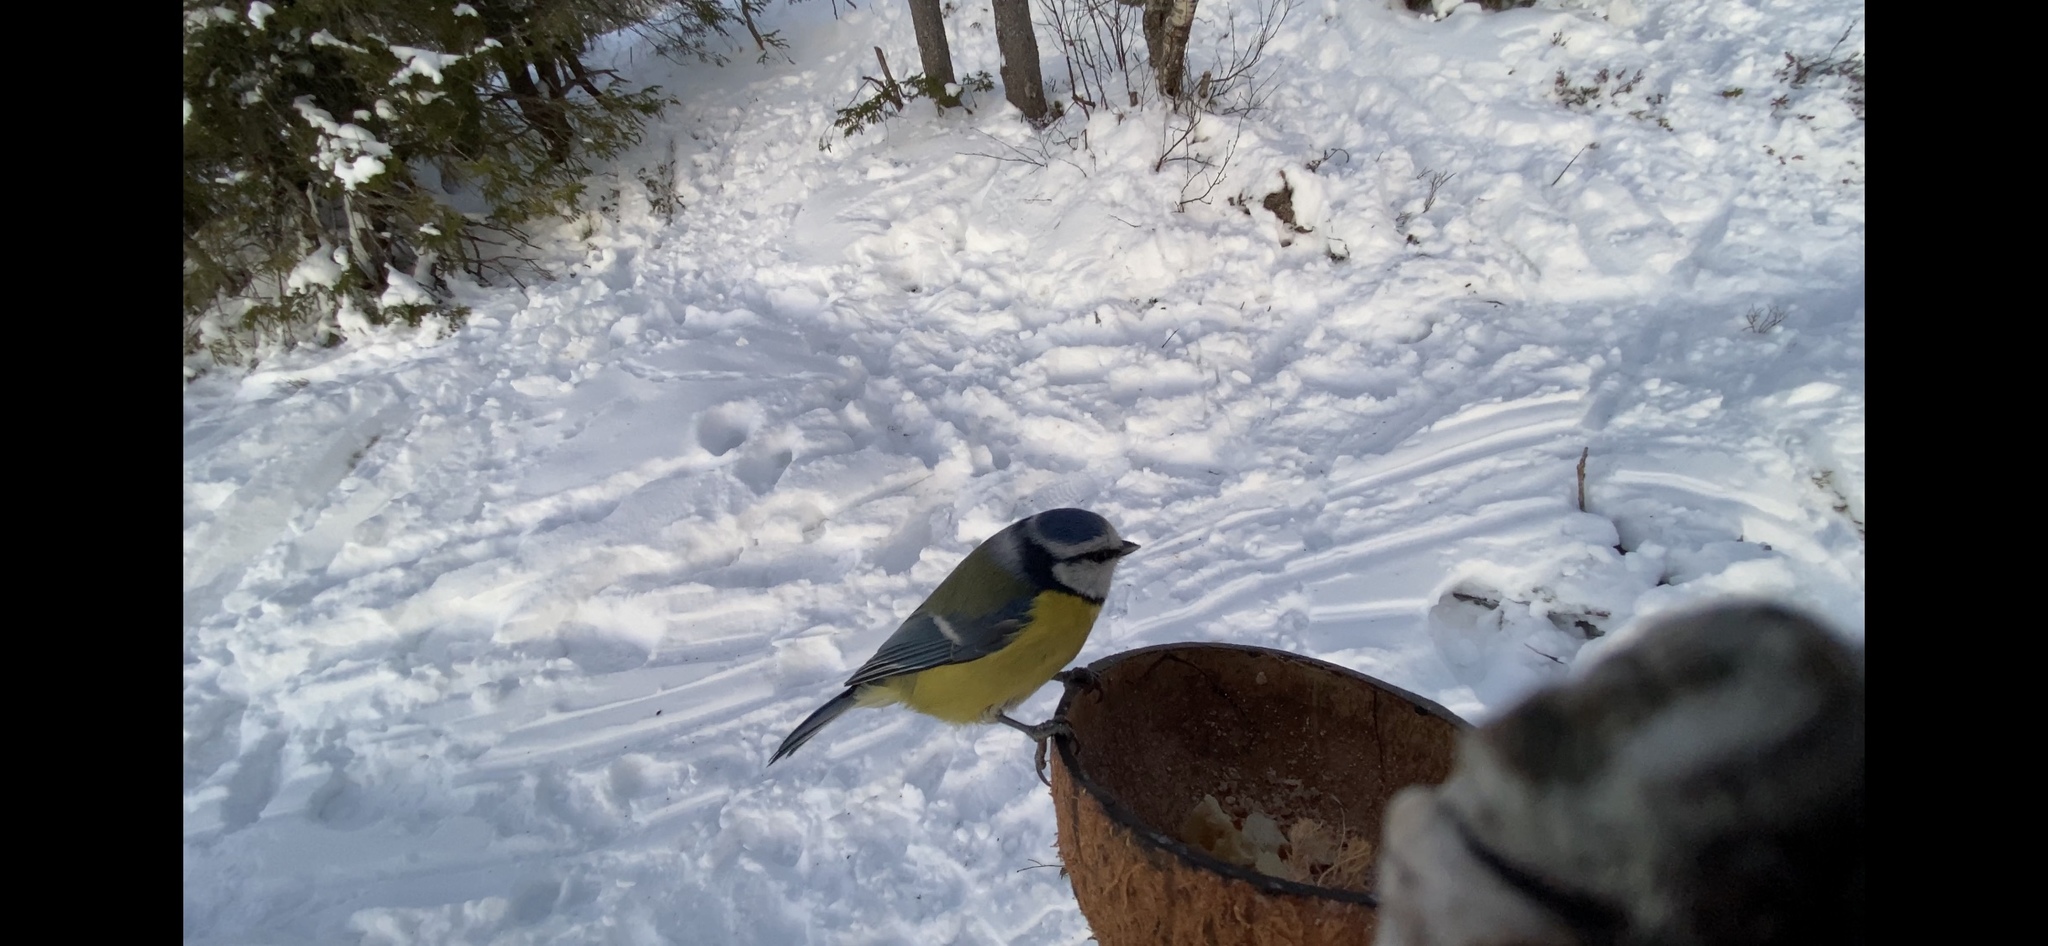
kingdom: Animalia
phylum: Chordata
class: Aves
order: Passeriformes
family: Paridae
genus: Cyanistes
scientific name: Cyanistes caeruleus
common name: Eurasian blue tit
